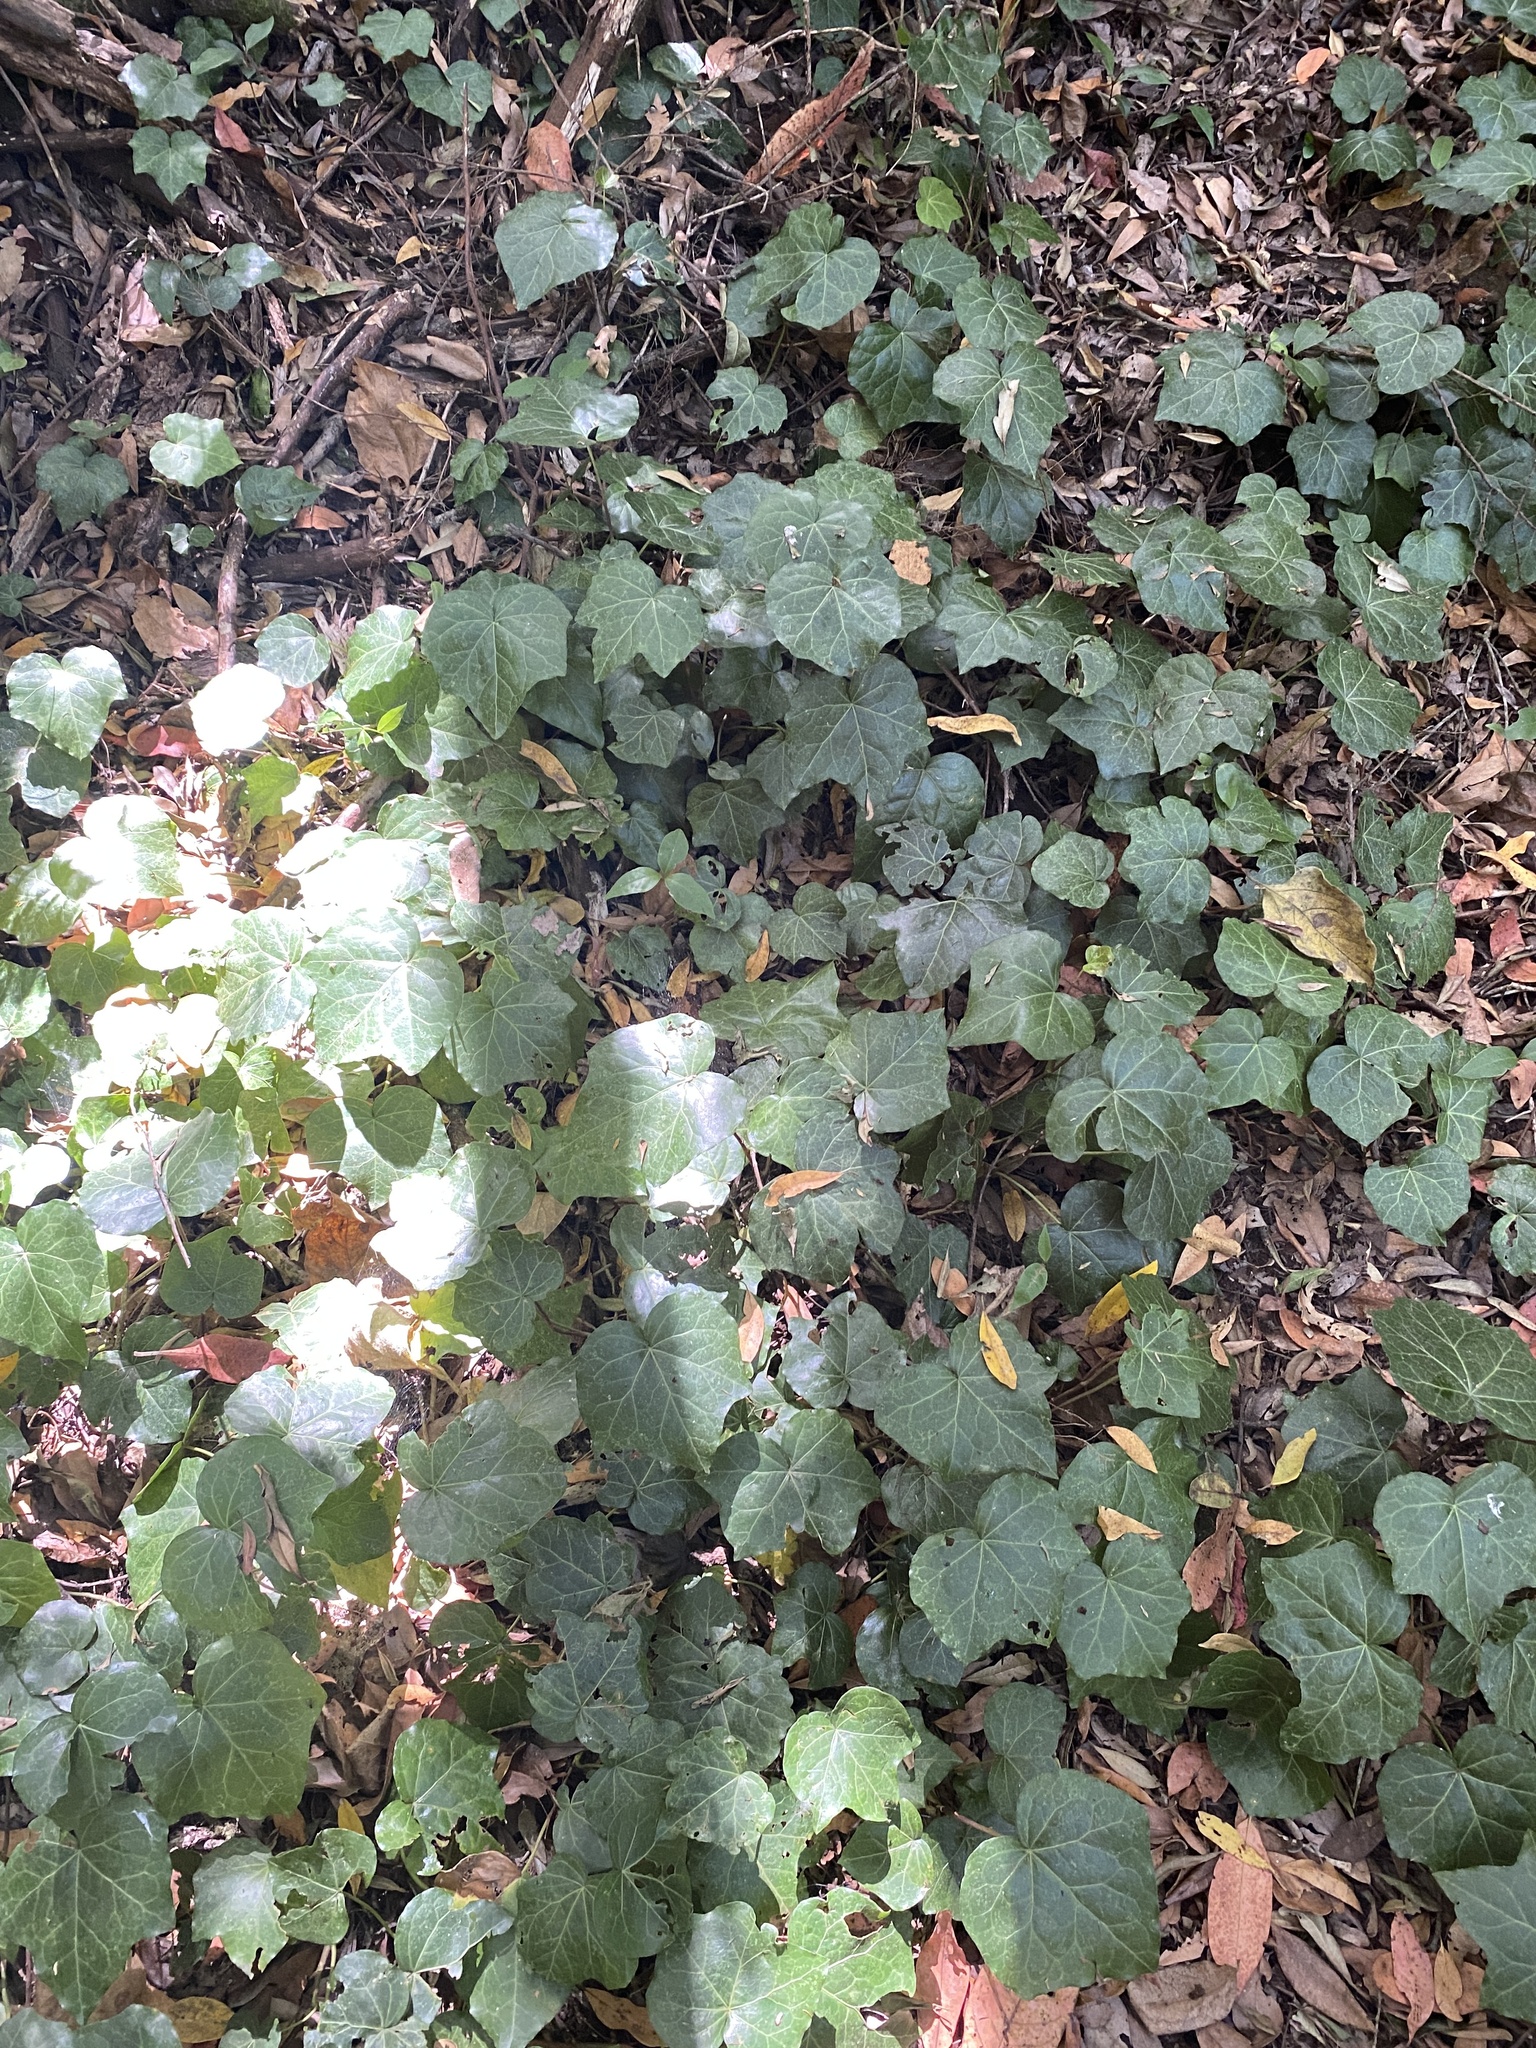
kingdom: Plantae
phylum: Tracheophyta
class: Magnoliopsida
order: Apiales
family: Araliaceae
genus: Hedera
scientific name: Hedera canariensis
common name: Madeira ivy
